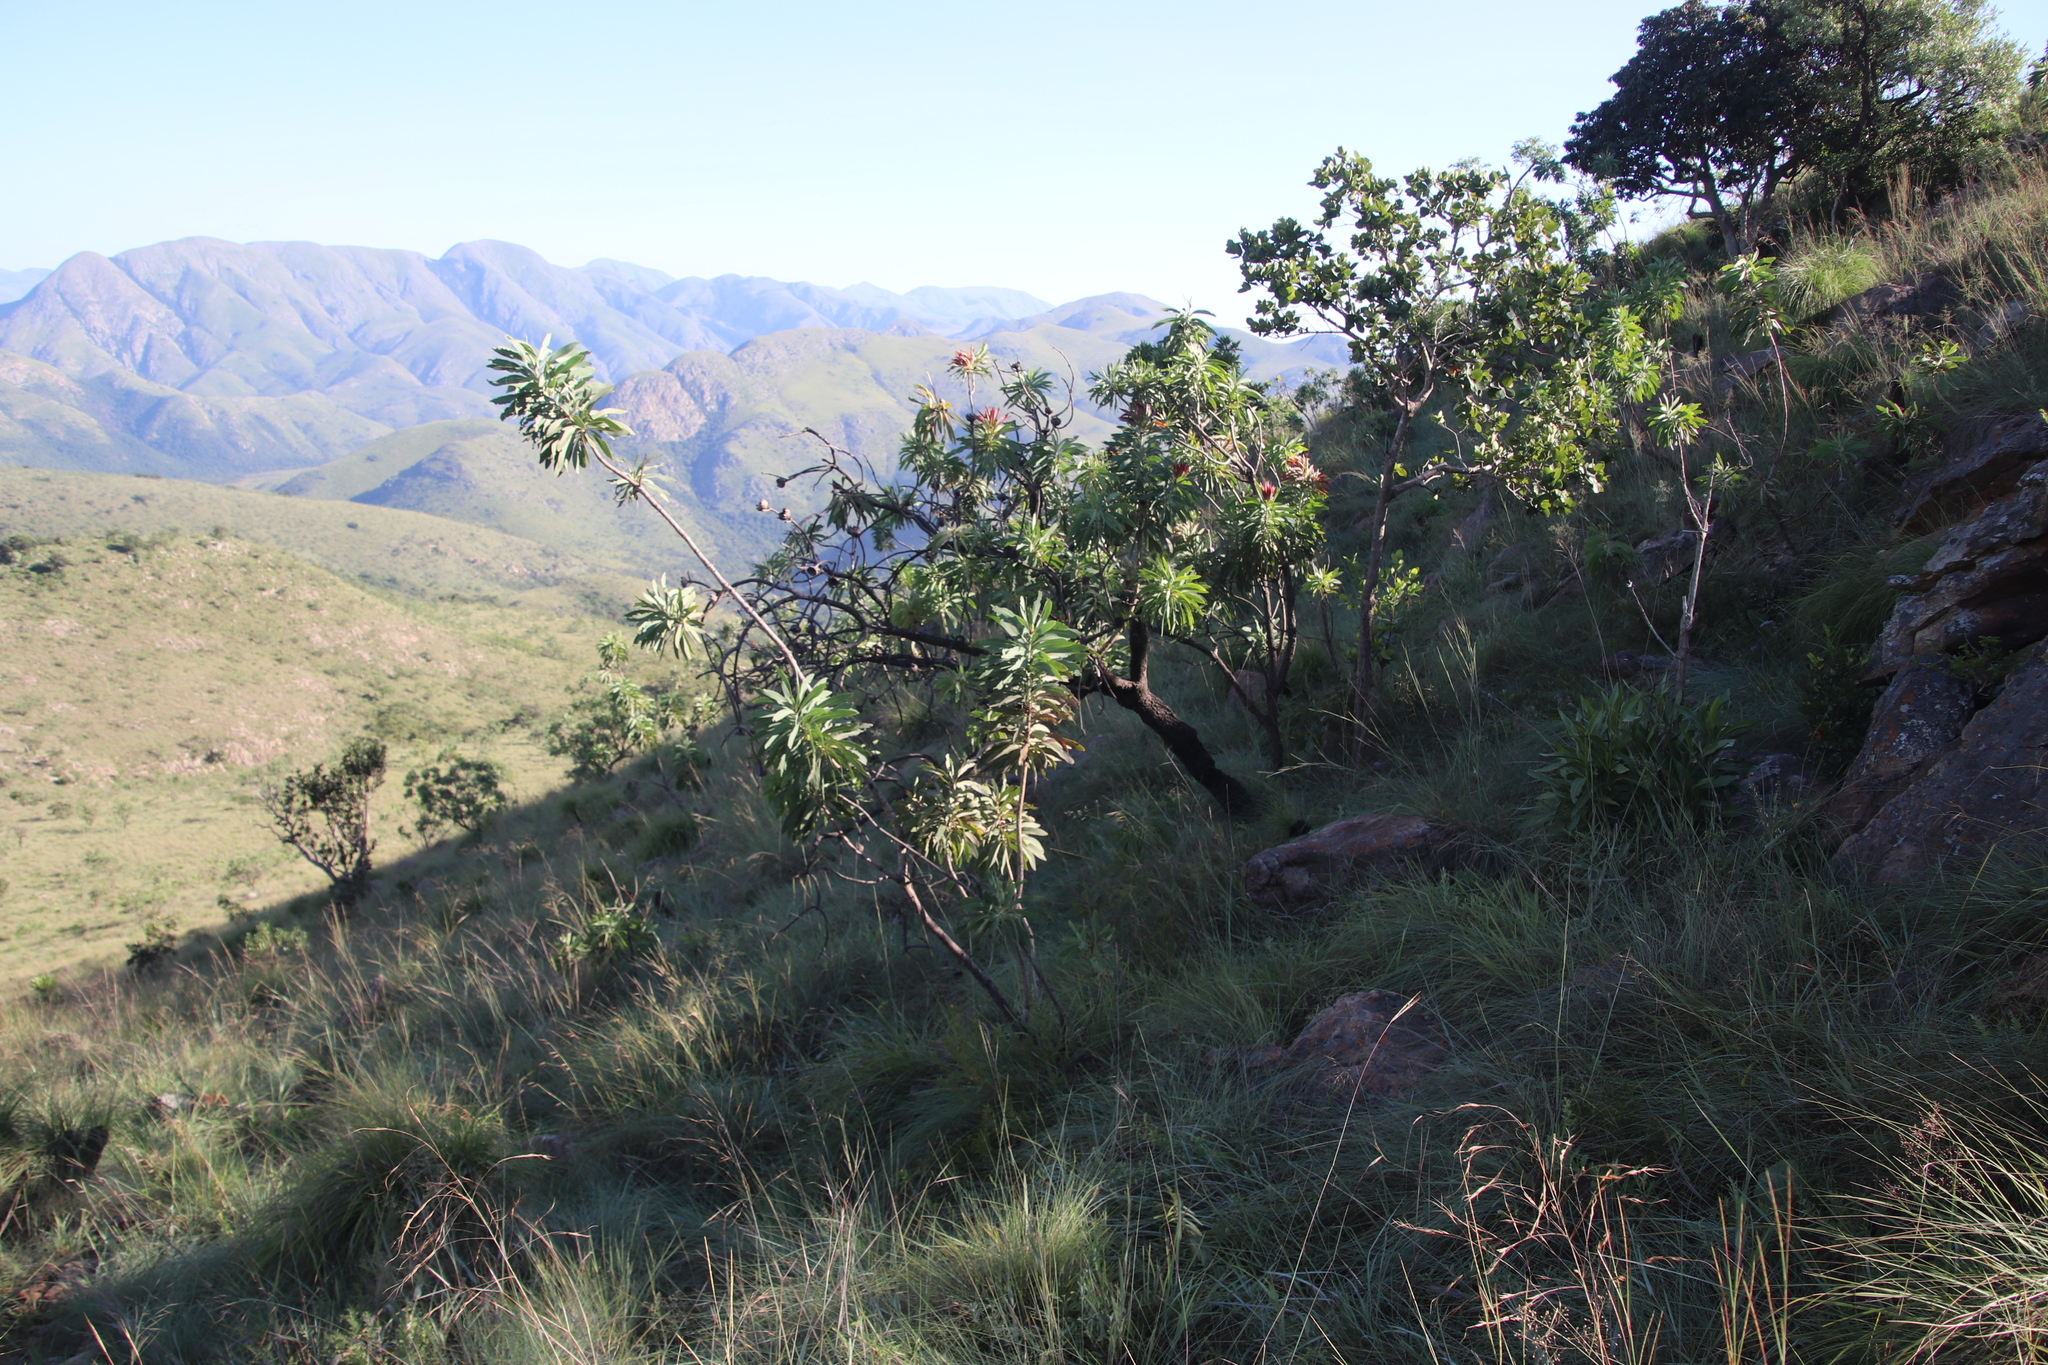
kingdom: Plantae
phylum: Tracheophyta
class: Magnoliopsida
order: Proteales
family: Proteaceae
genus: Protea
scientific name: Protea caffra
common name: Common sugarbush
